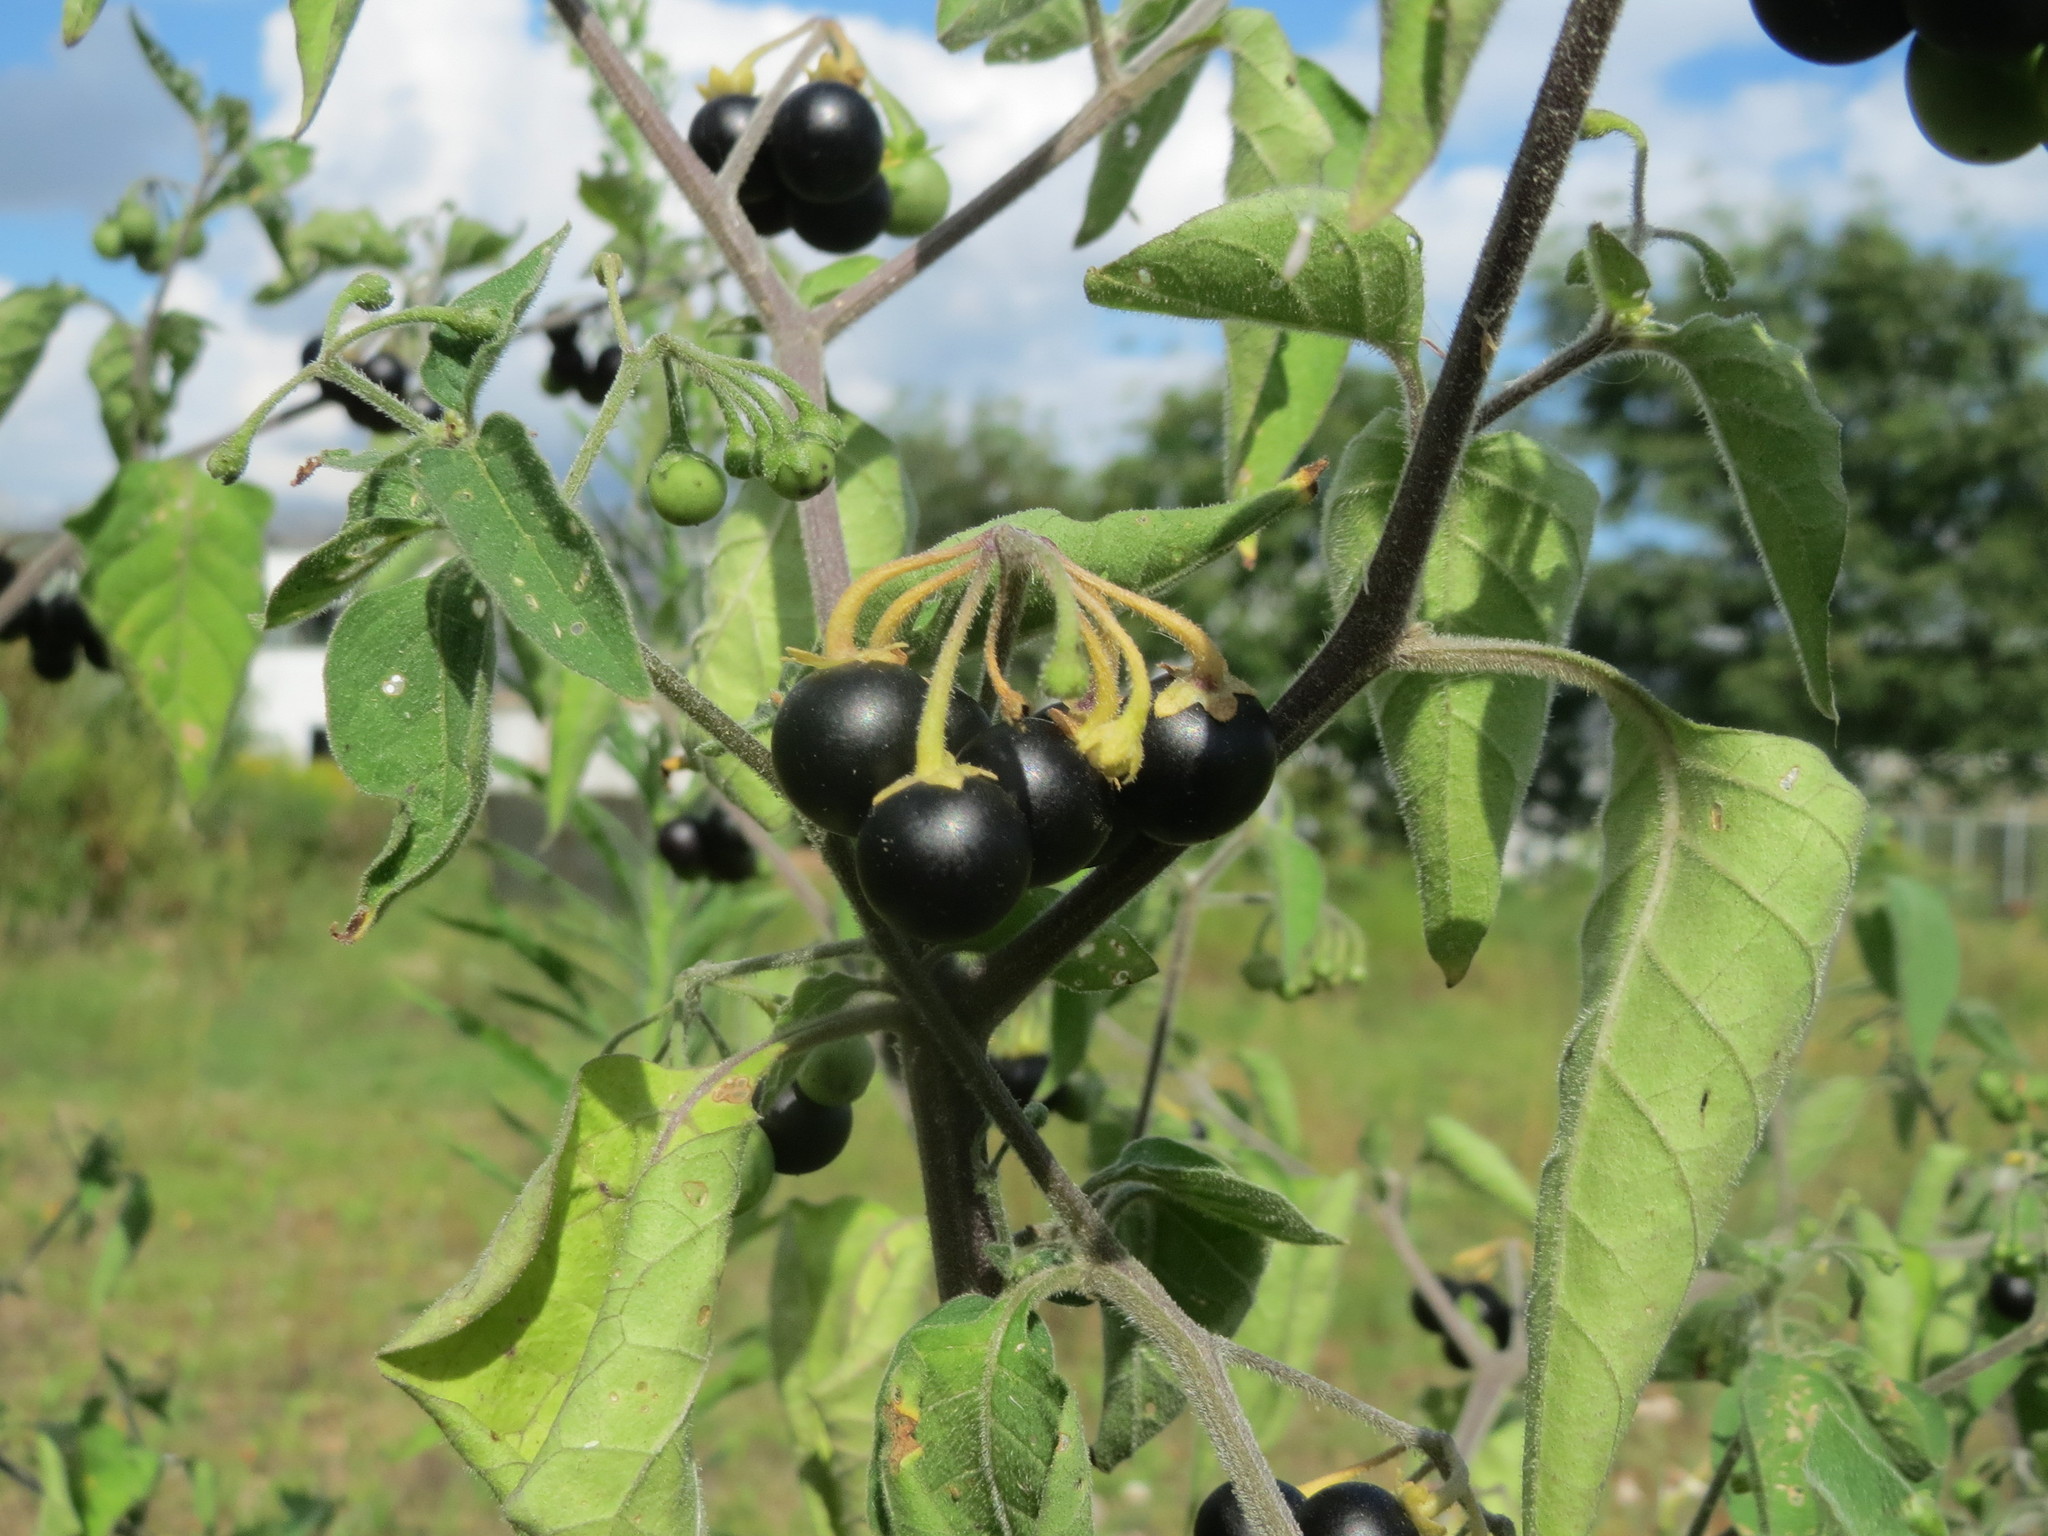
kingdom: Plantae
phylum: Tracheophyta
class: Magnoliopsida
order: Solanales
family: Solanaceae
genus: Solanum
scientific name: Solanum nigrum
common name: Black nightshade
